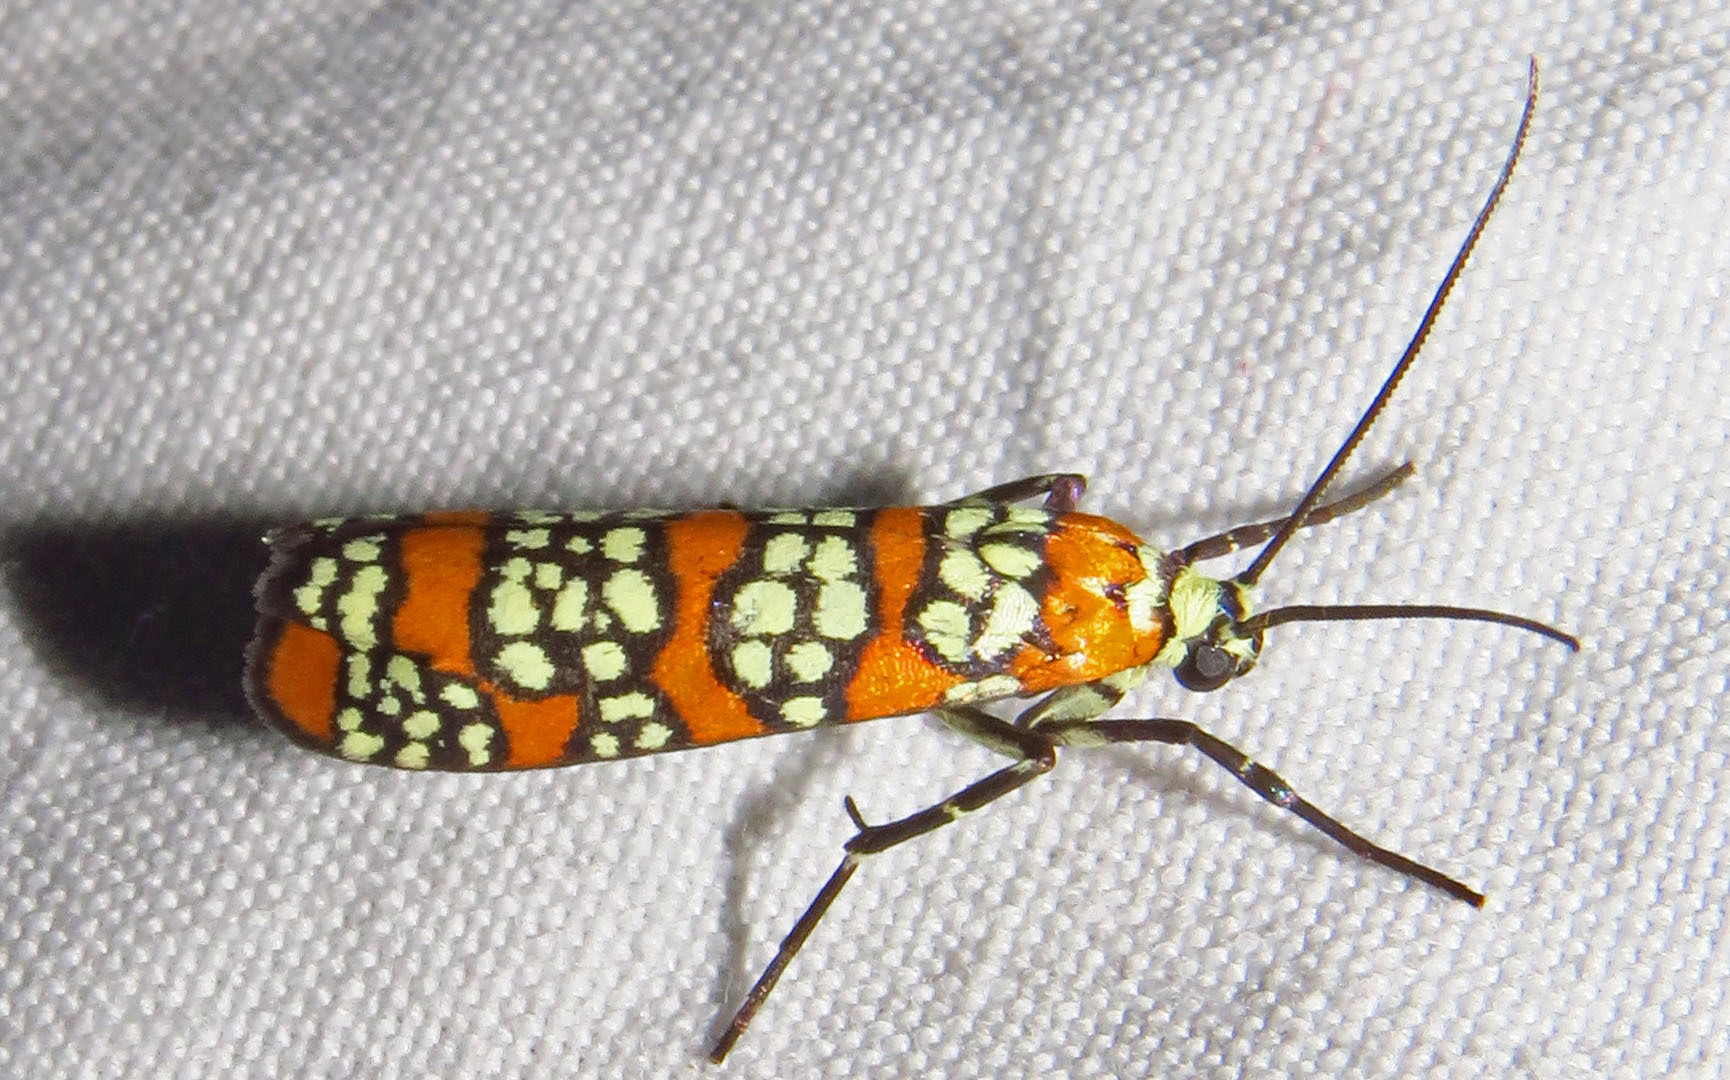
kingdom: Animalia
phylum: Arthropoda
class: Insecta
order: Lepidoptera
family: Attevidae
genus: Atteva
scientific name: Atteva punctella
